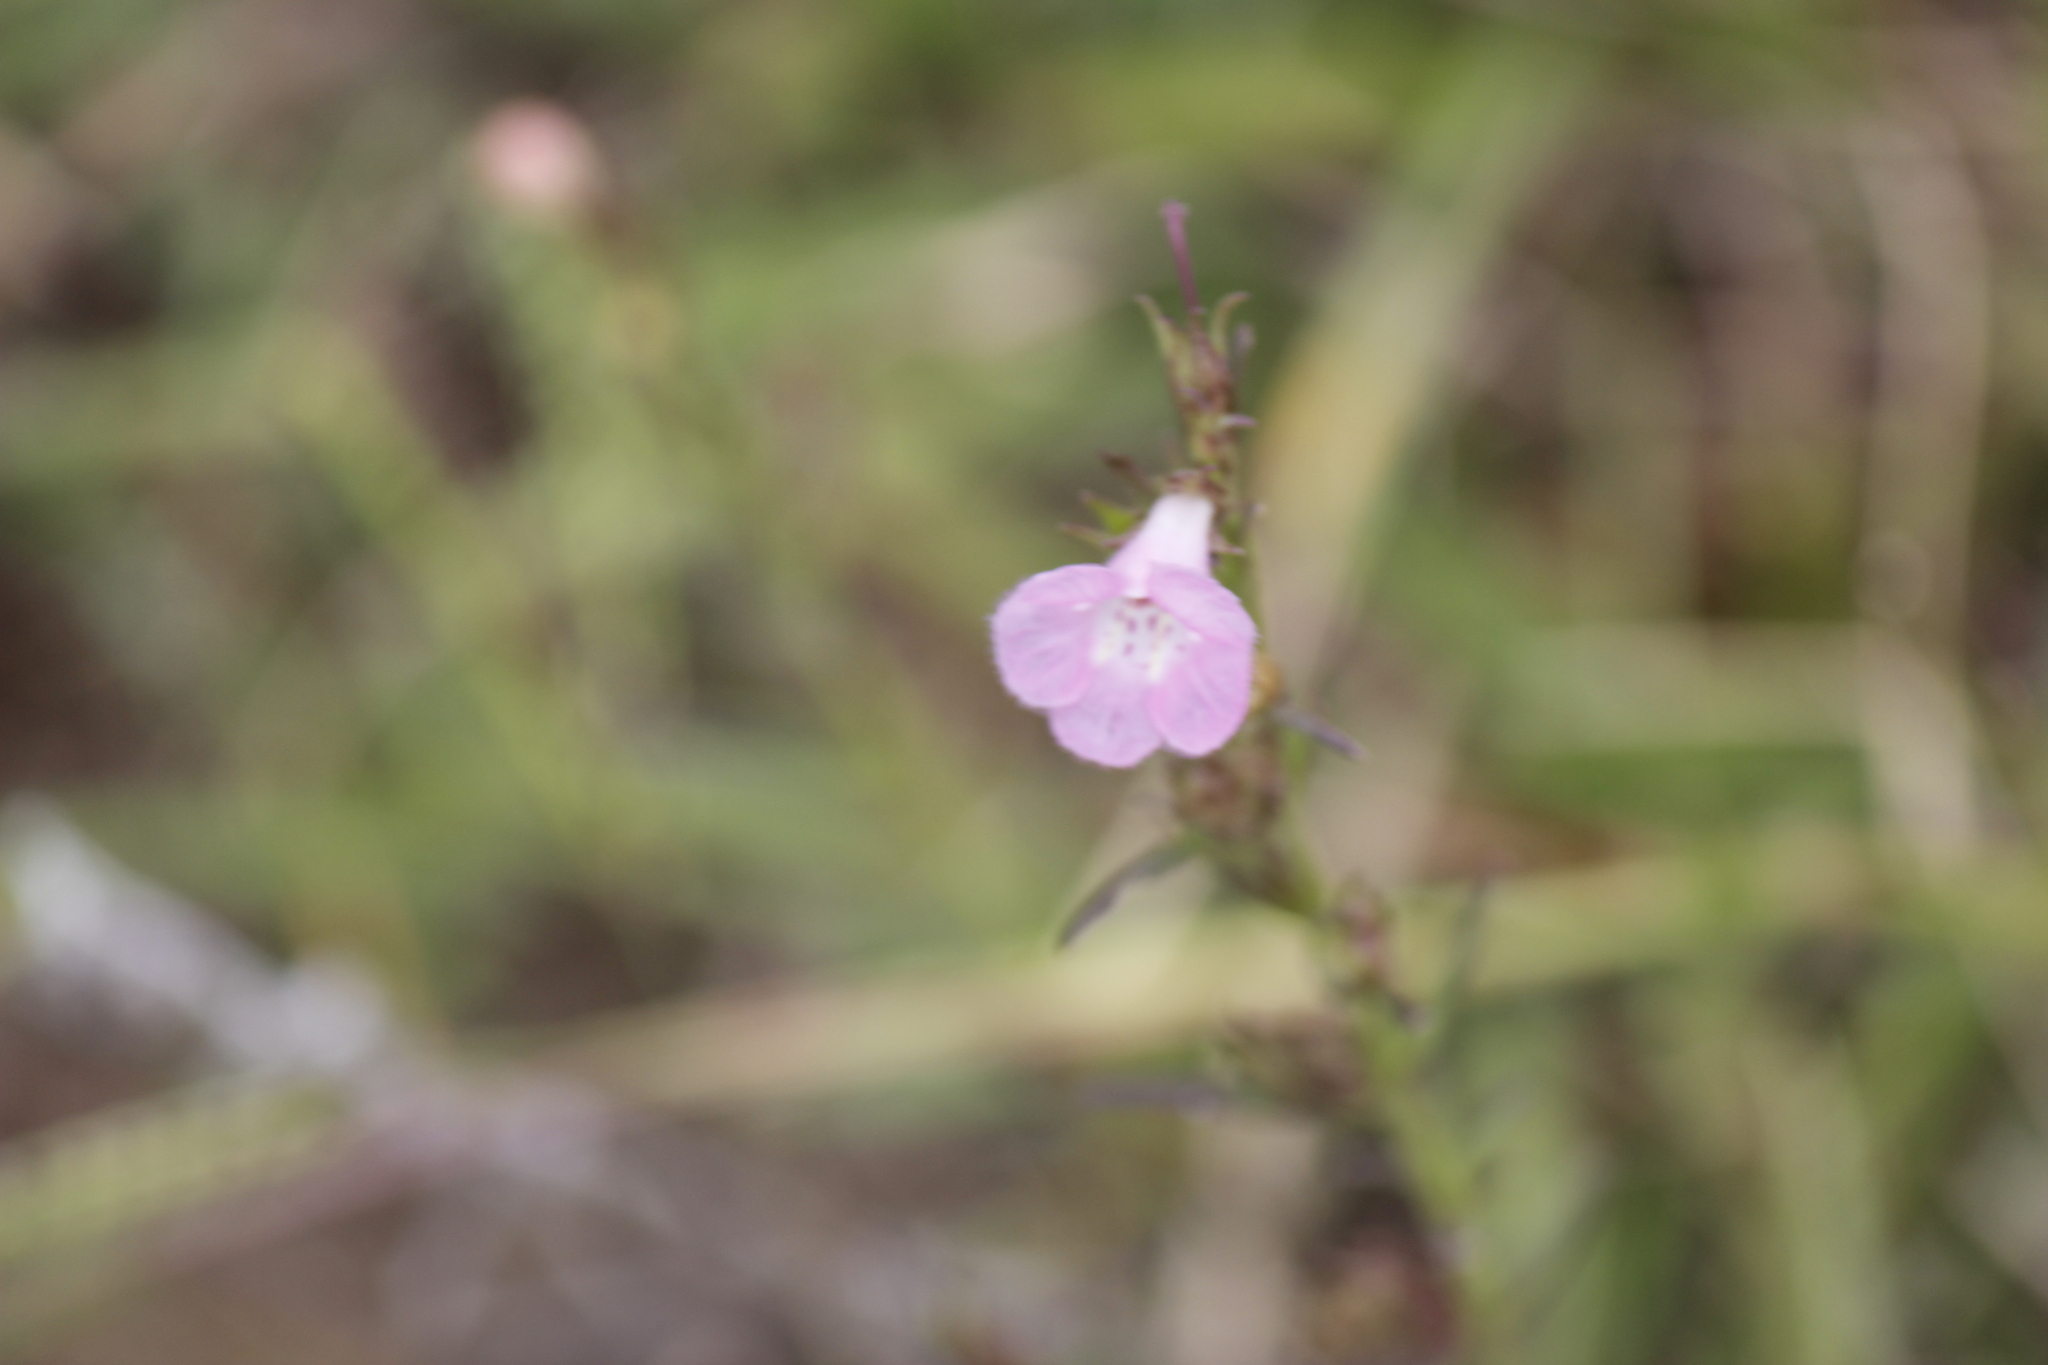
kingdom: Plantae
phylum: Tracheophyta
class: Magnoliopsida
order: Lamiales
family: Orobanchaceae
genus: Agalinis
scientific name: Agalinis communis
